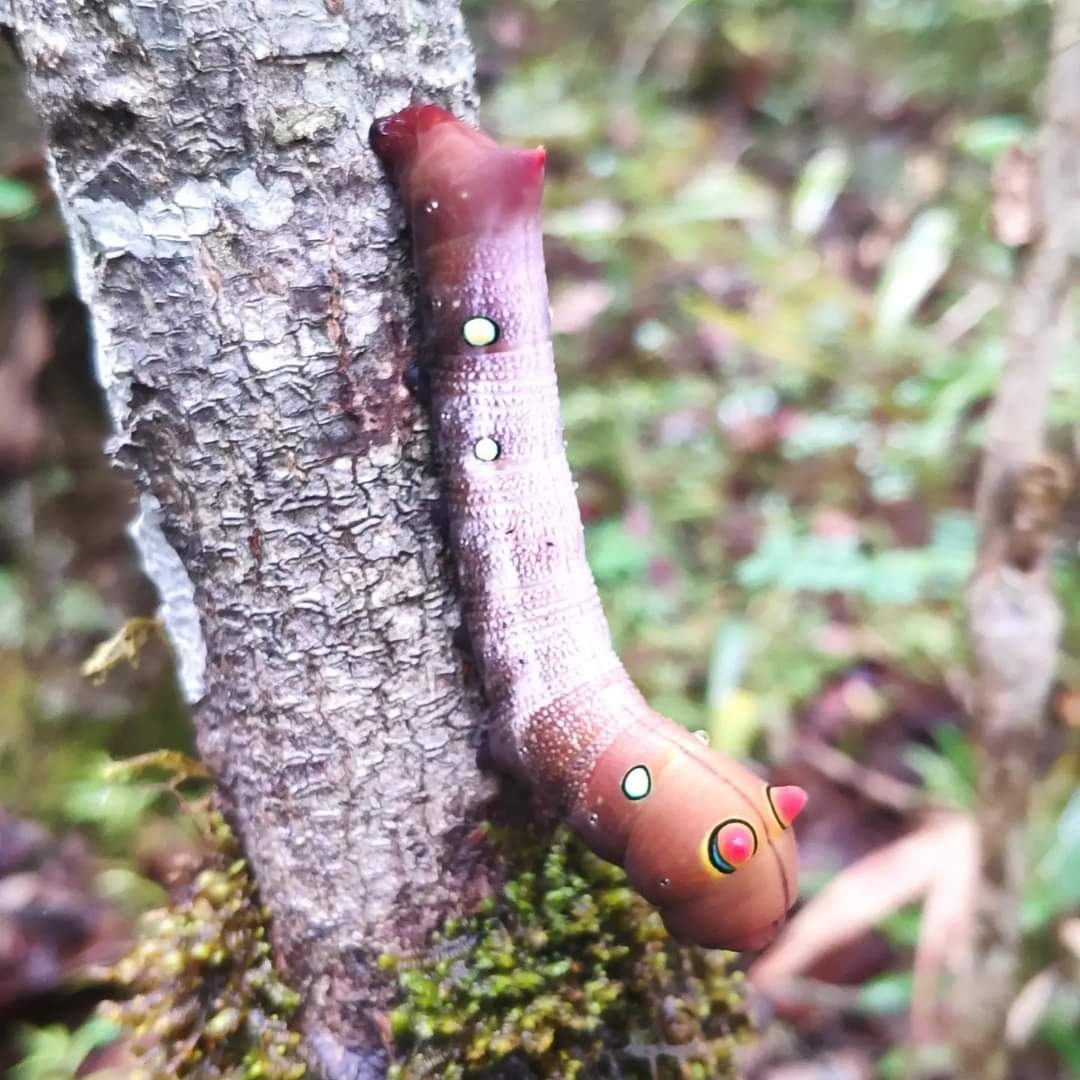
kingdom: Animalia
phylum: Arthropoda
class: Insecta
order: Lepidoptera
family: Sphingidae
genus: Rhagastis
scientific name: Rhagastis lambertoni
